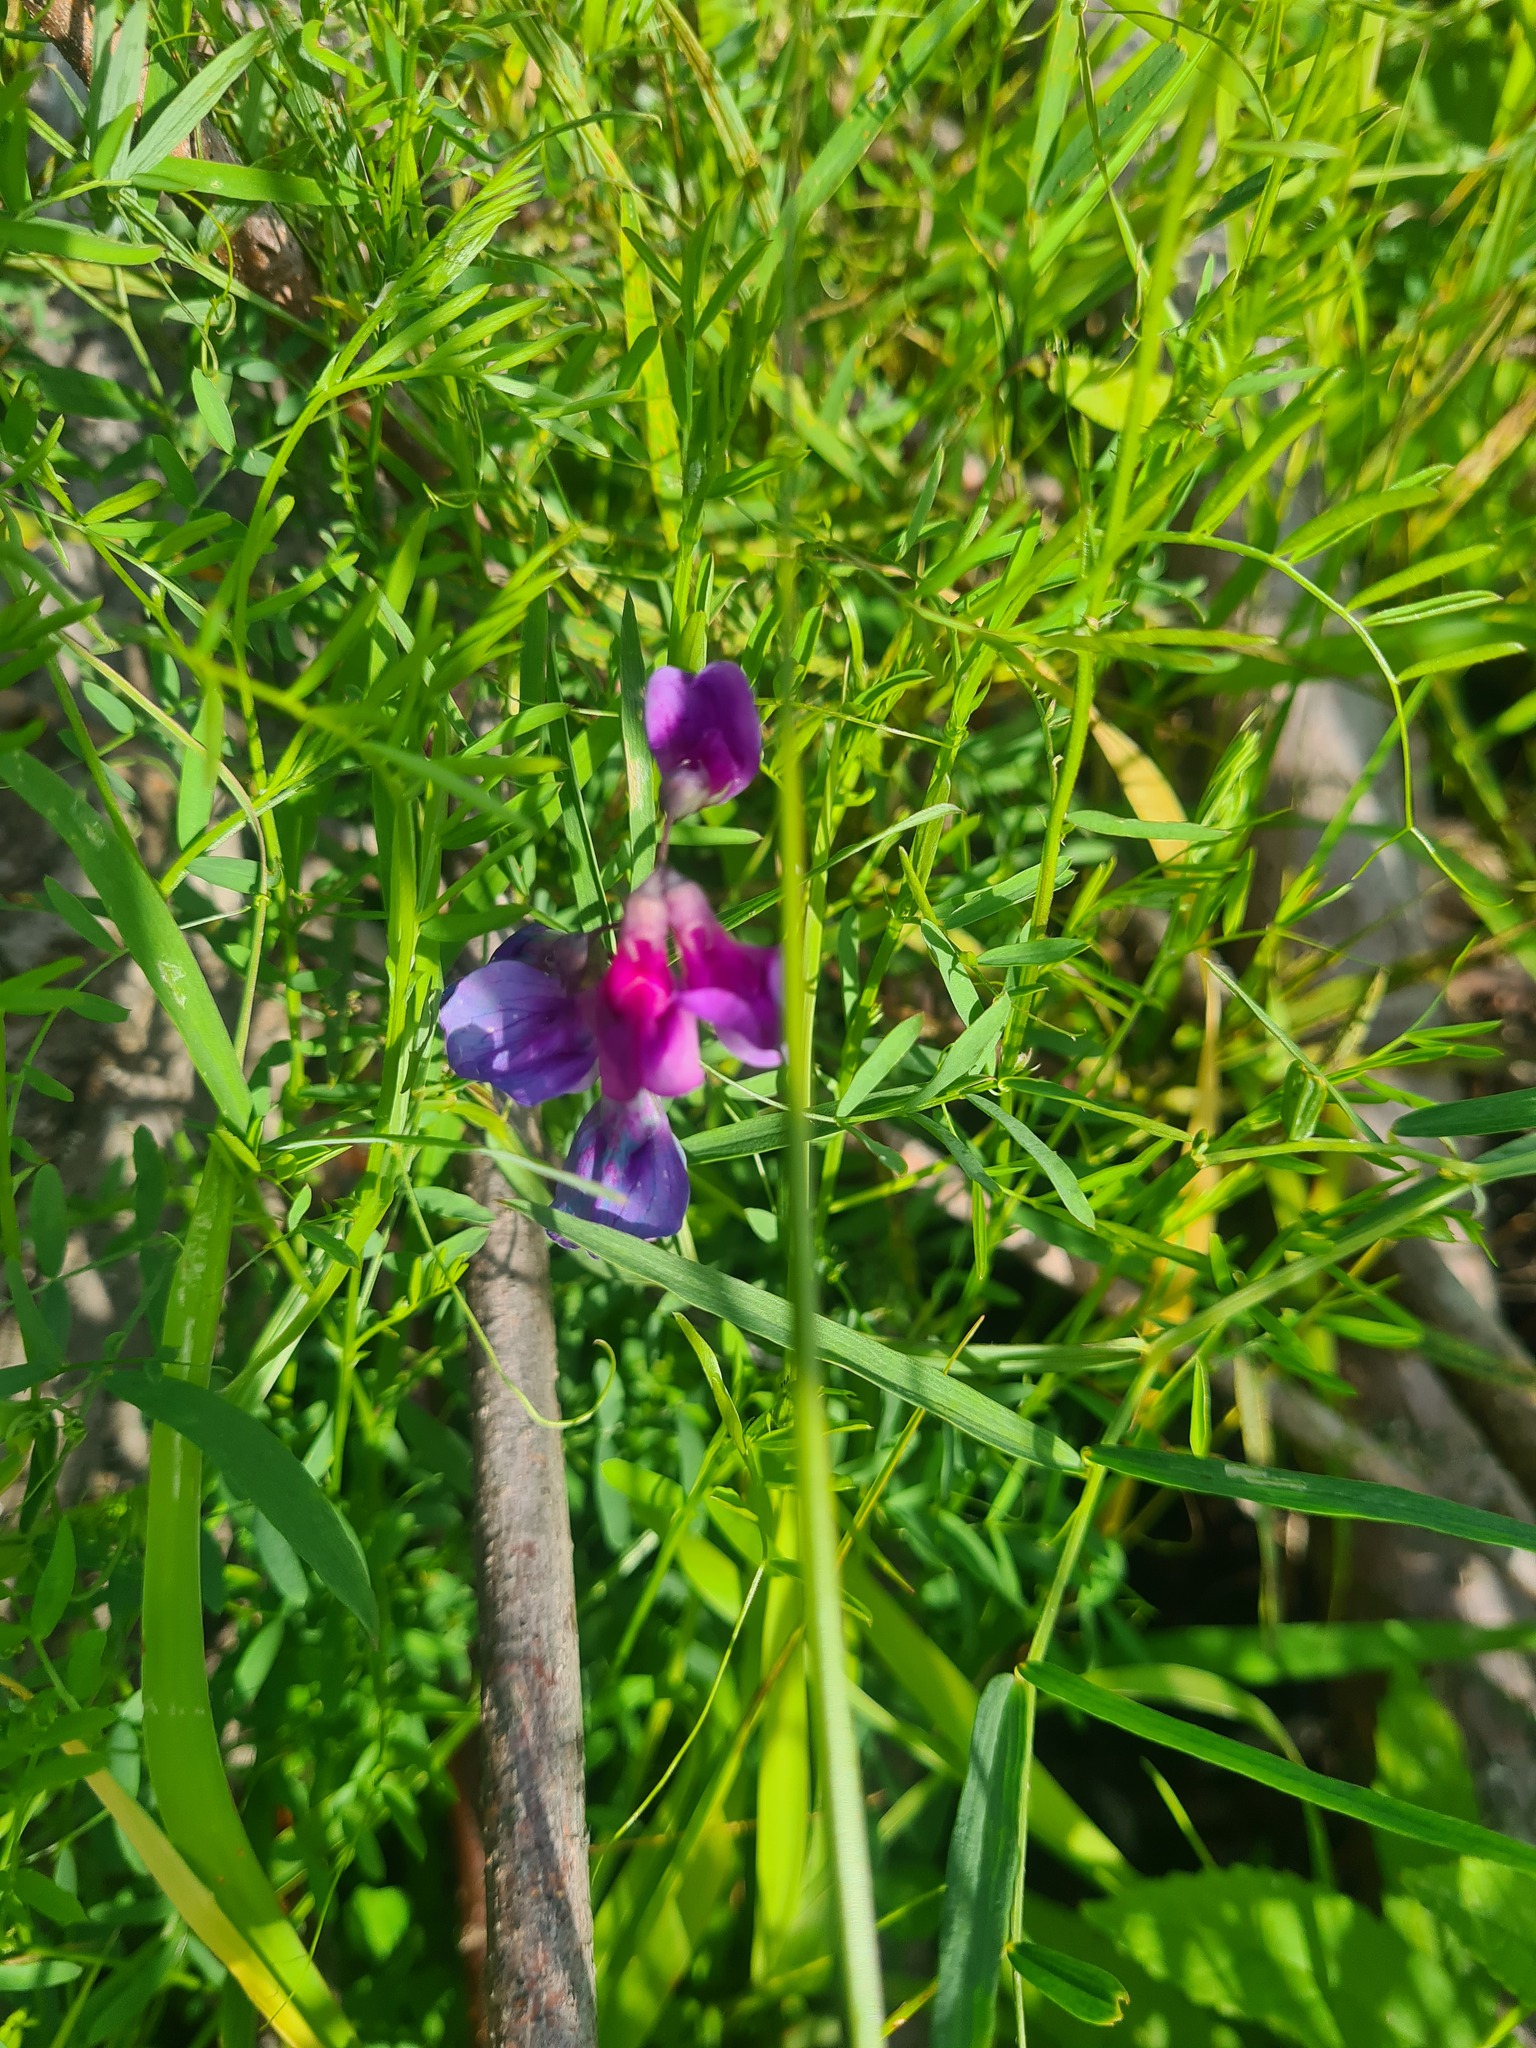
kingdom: Plantae
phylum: Tracheophyta
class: Magnoliopsida
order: Fabales
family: Fabaceae
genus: Lathyrus
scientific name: Lathyrus palustris
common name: Marsh pea
